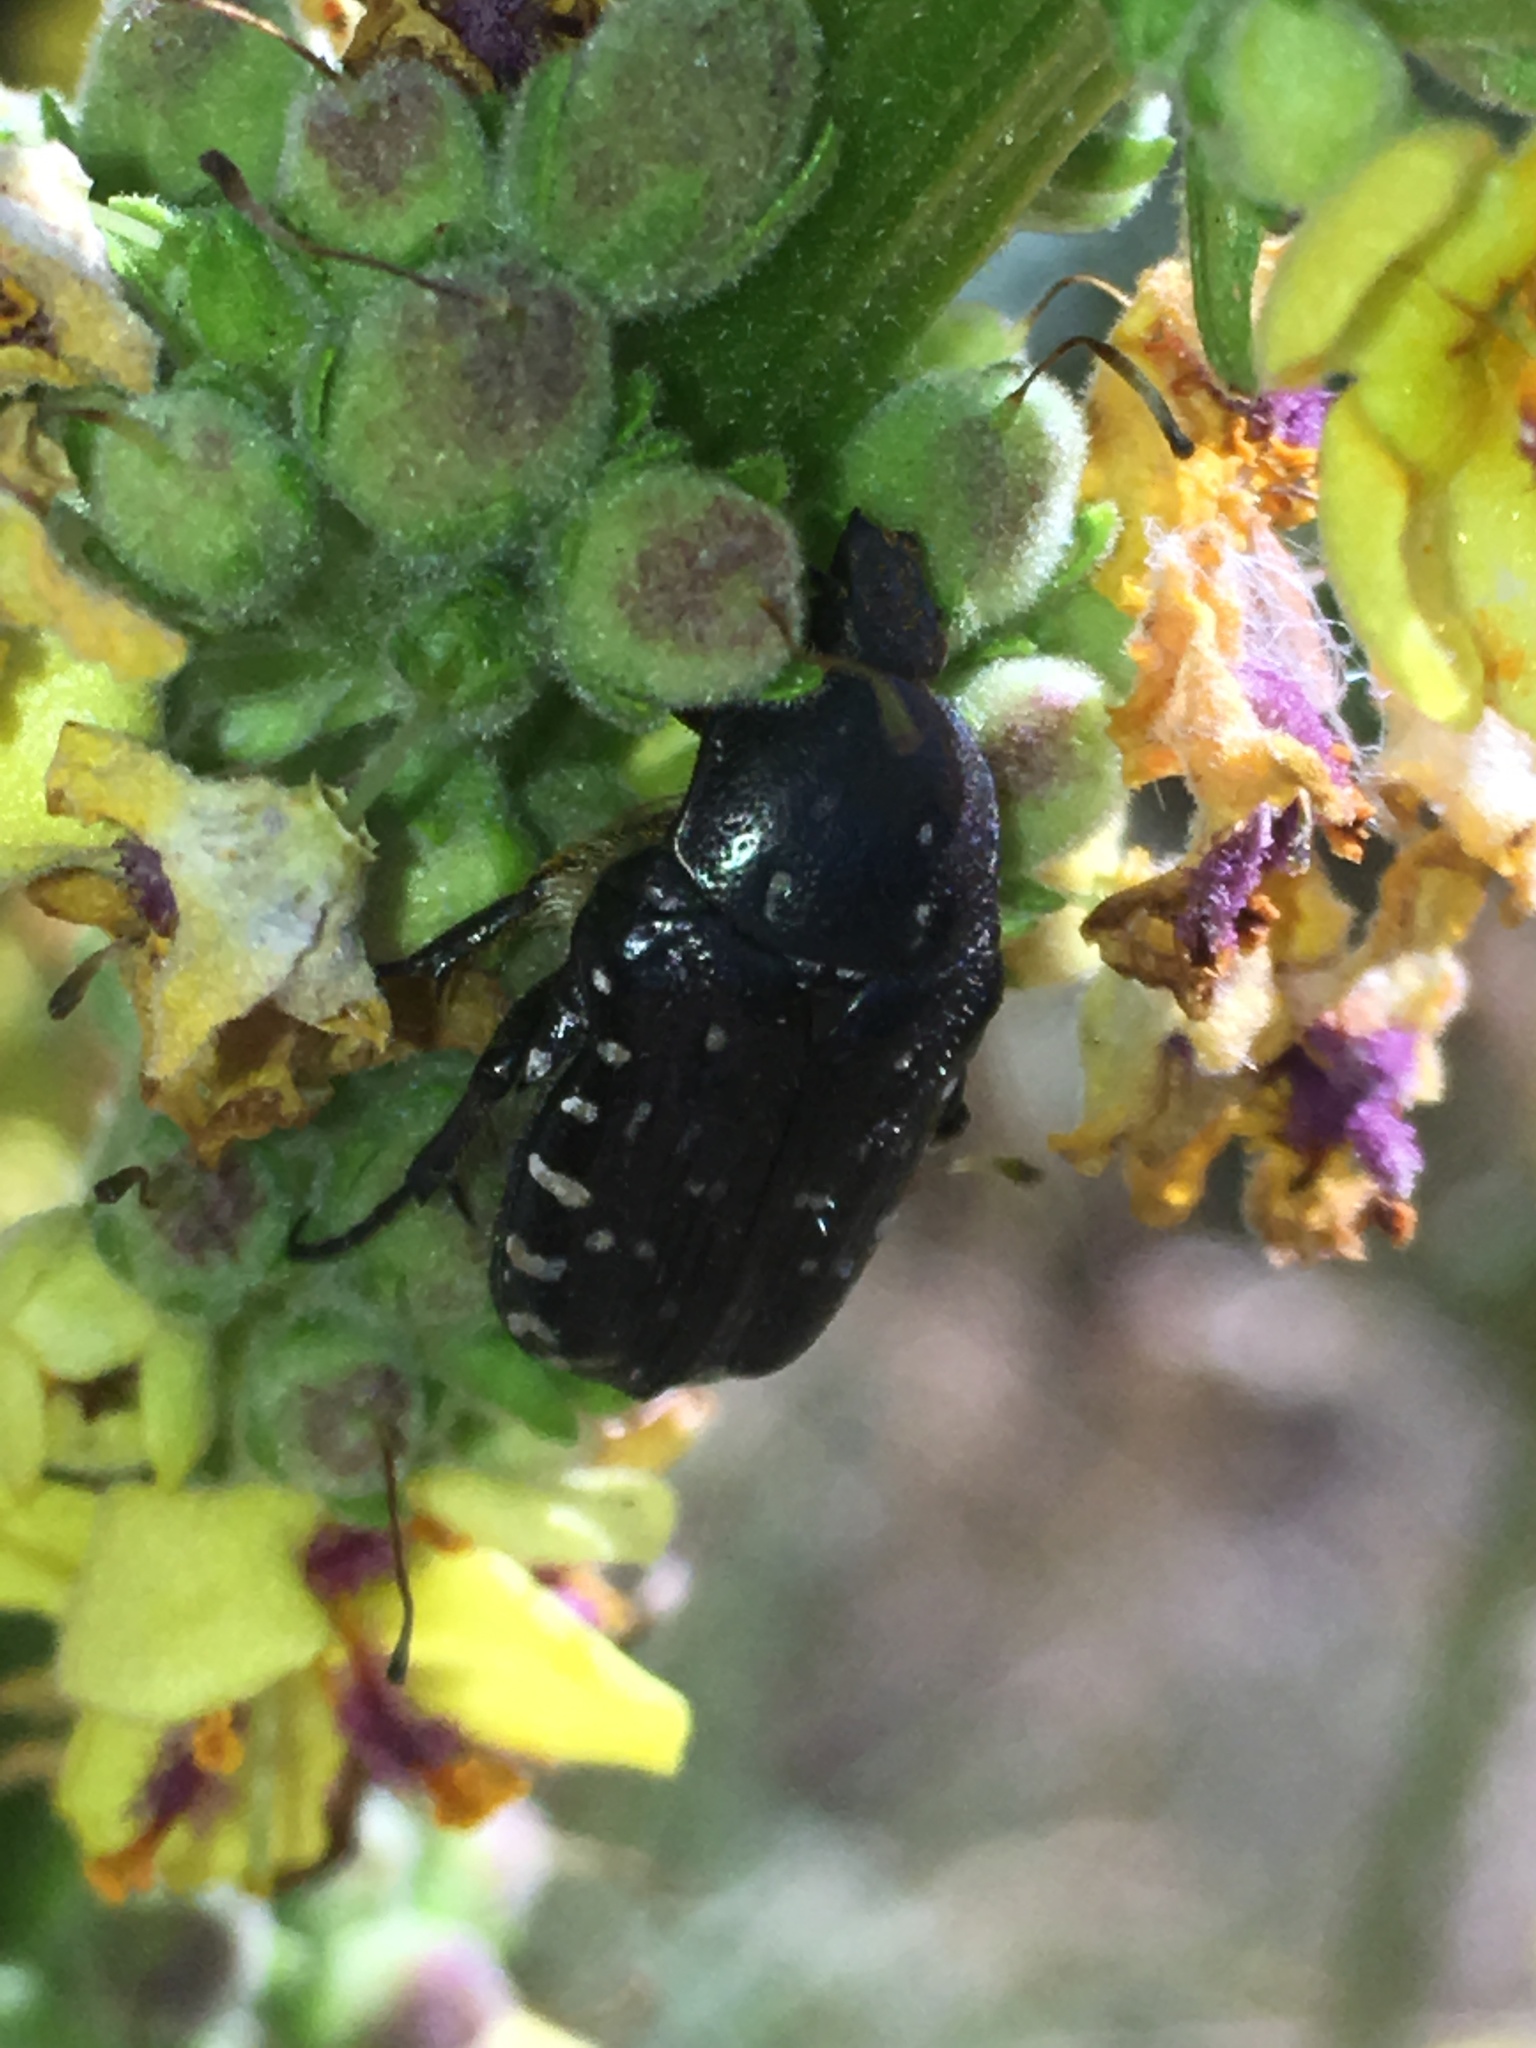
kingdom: Animalia
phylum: Arthropoda
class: Insecta
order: Coleoptera
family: Scarabaeidae
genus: Oxythyrea
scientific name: Oxythyrea funesta
